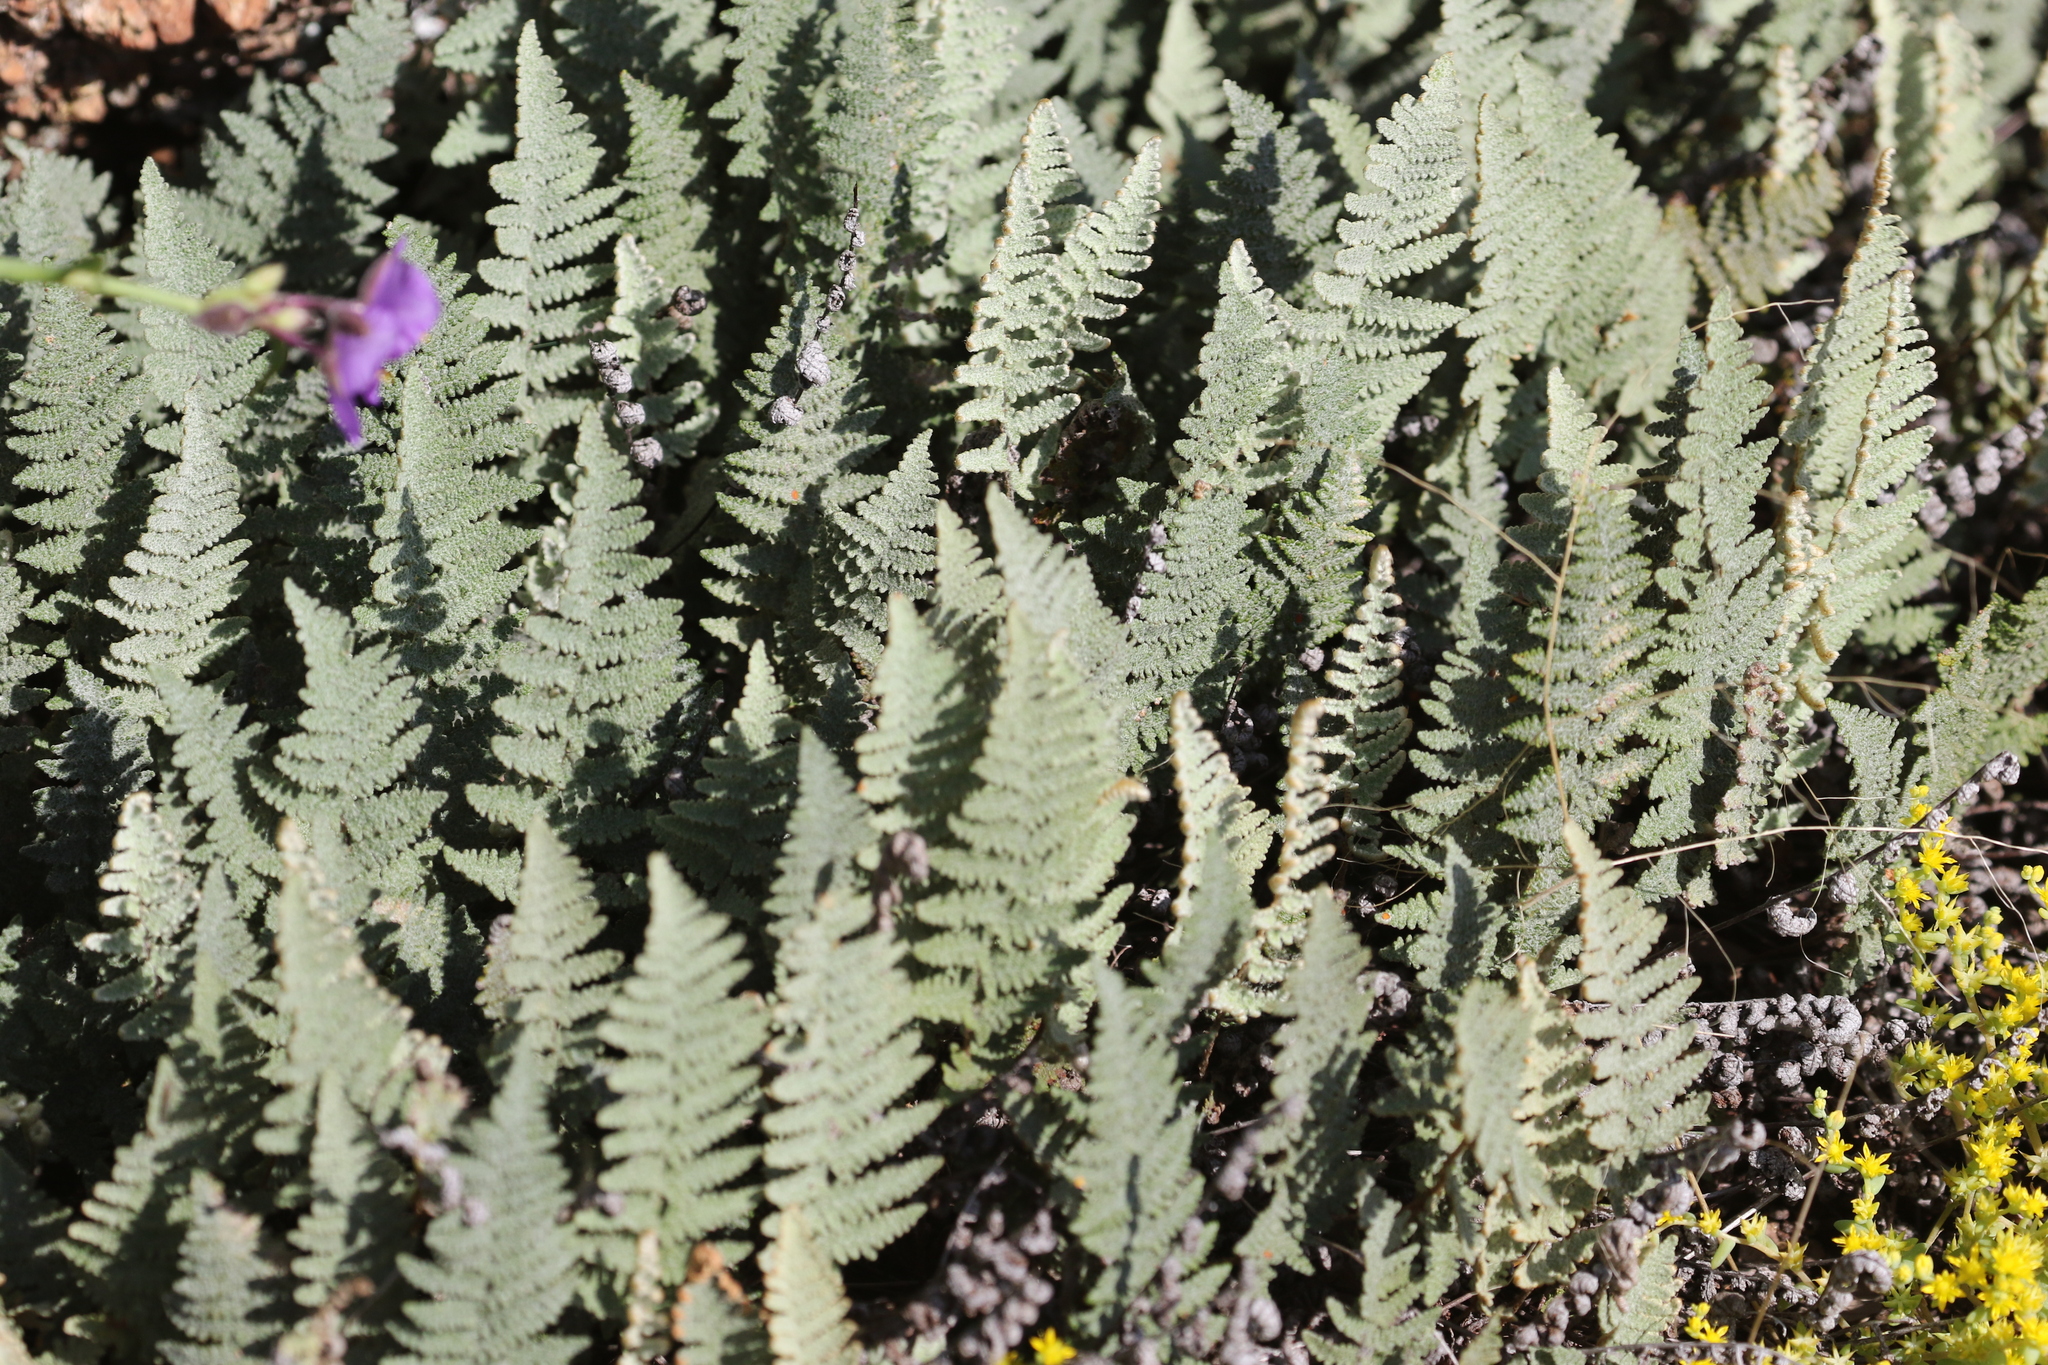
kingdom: Plantae
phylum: Tracheophyta
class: Polypodiopsida
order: Polypodiales
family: Pteridaceae
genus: Myriopteris
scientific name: Myriopteris lindheimeri
